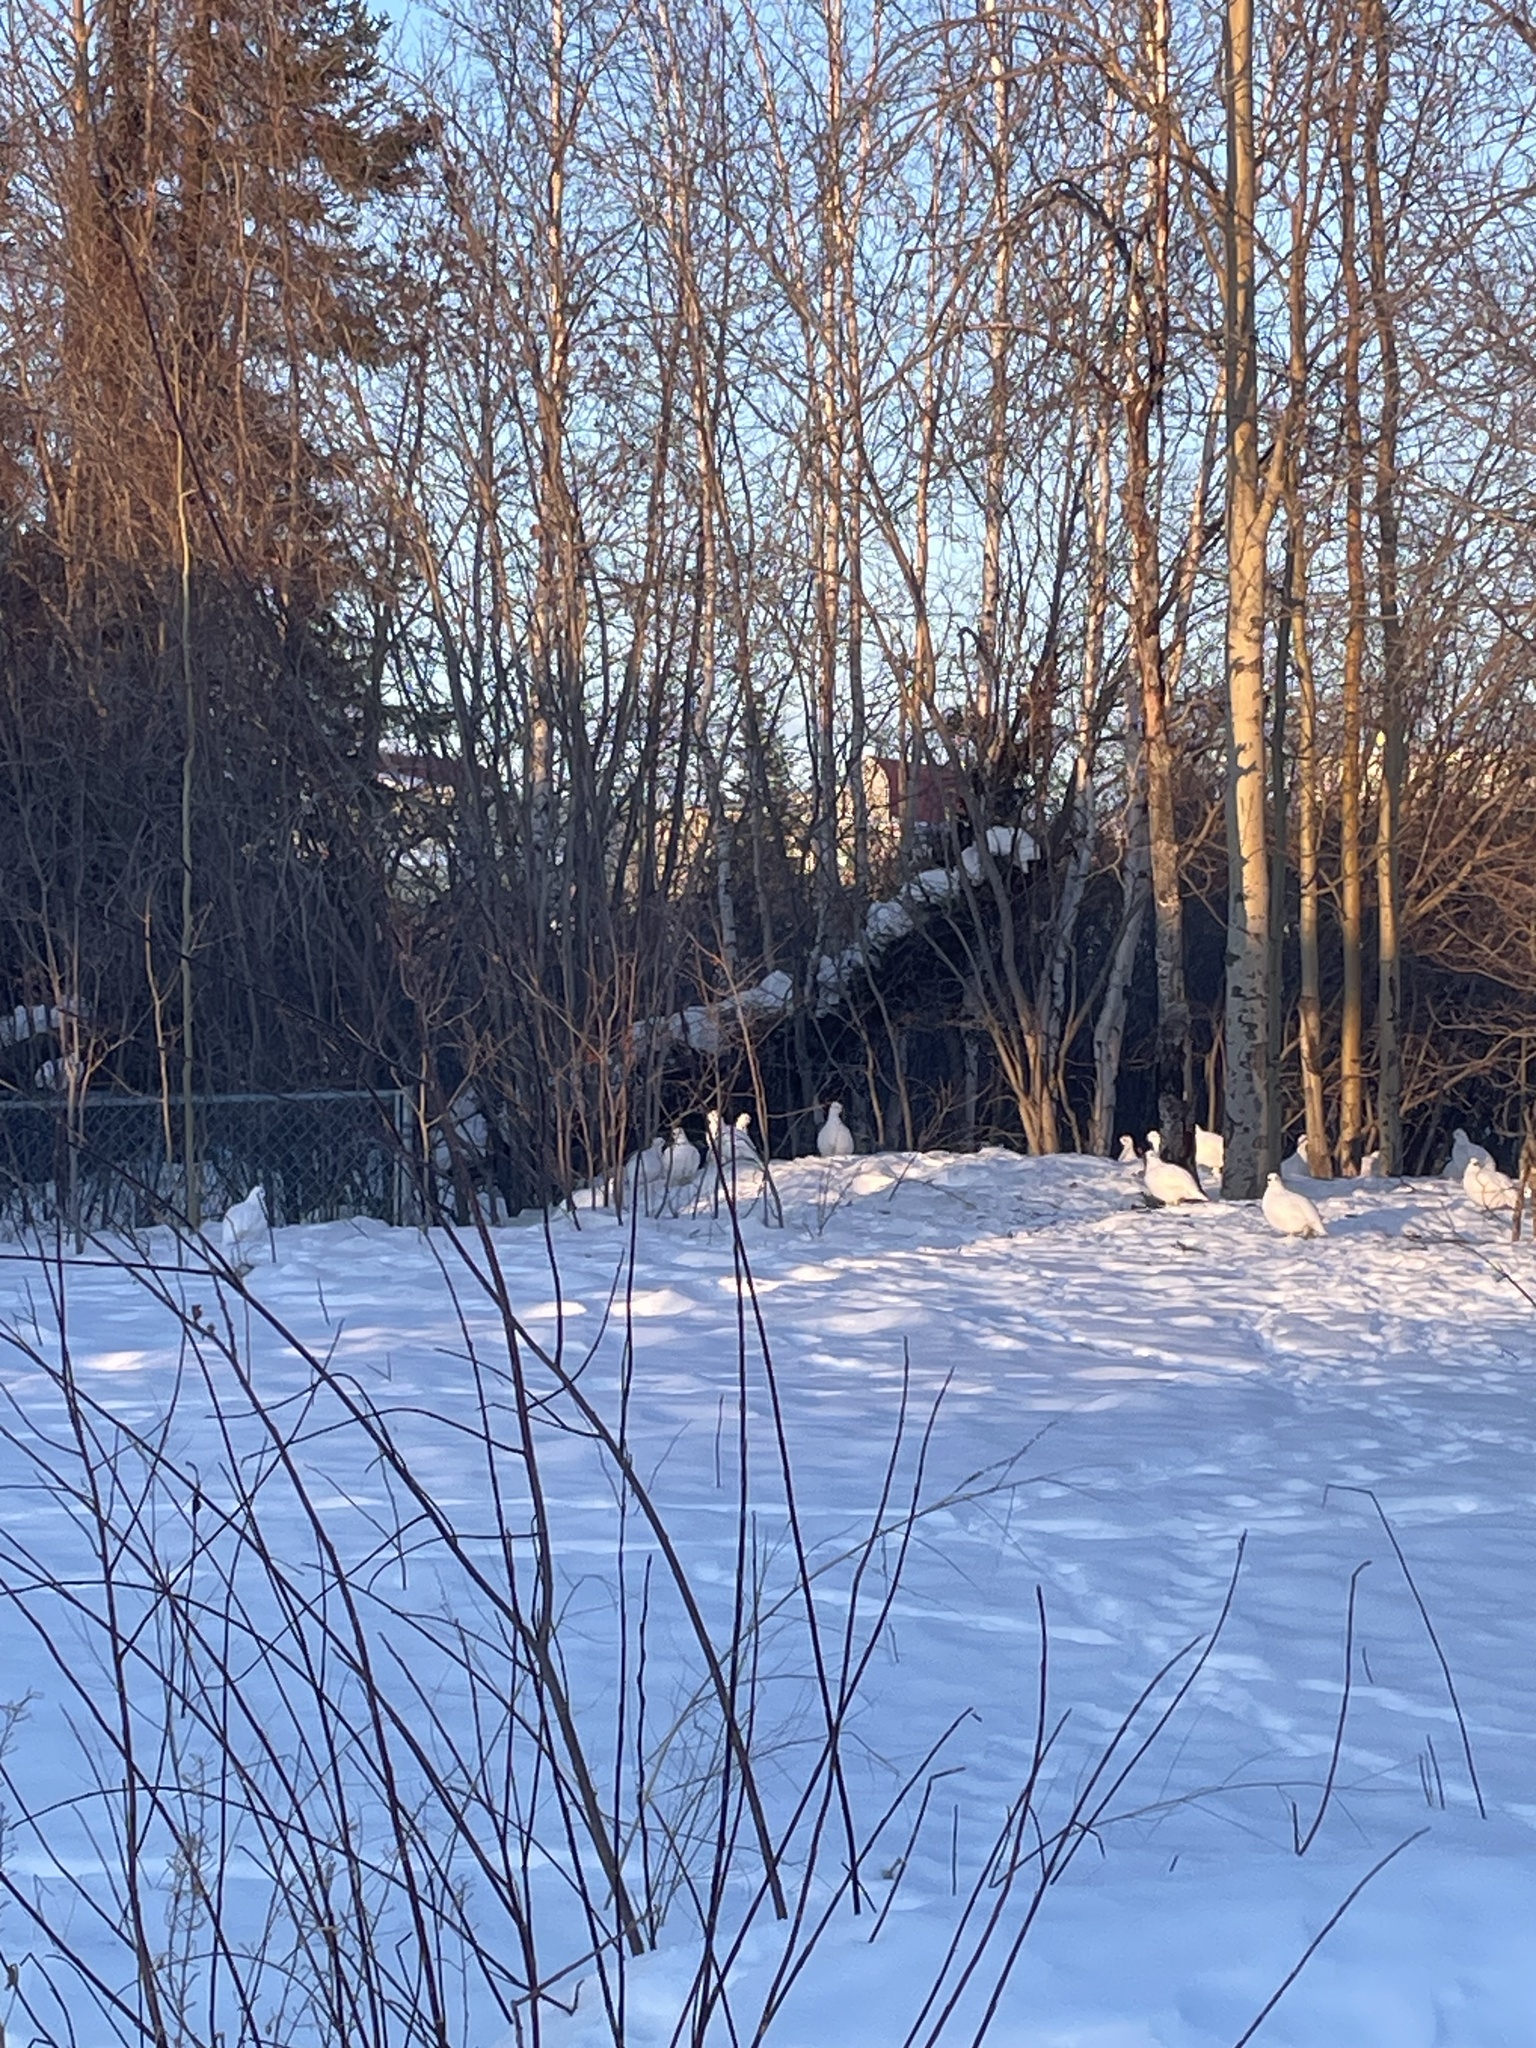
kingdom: Animalia
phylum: Chordata
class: Aves
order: Galliformes
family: Phasianidae
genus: Lagopus
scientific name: Lagopus lagopus
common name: Willow ptarmigan
